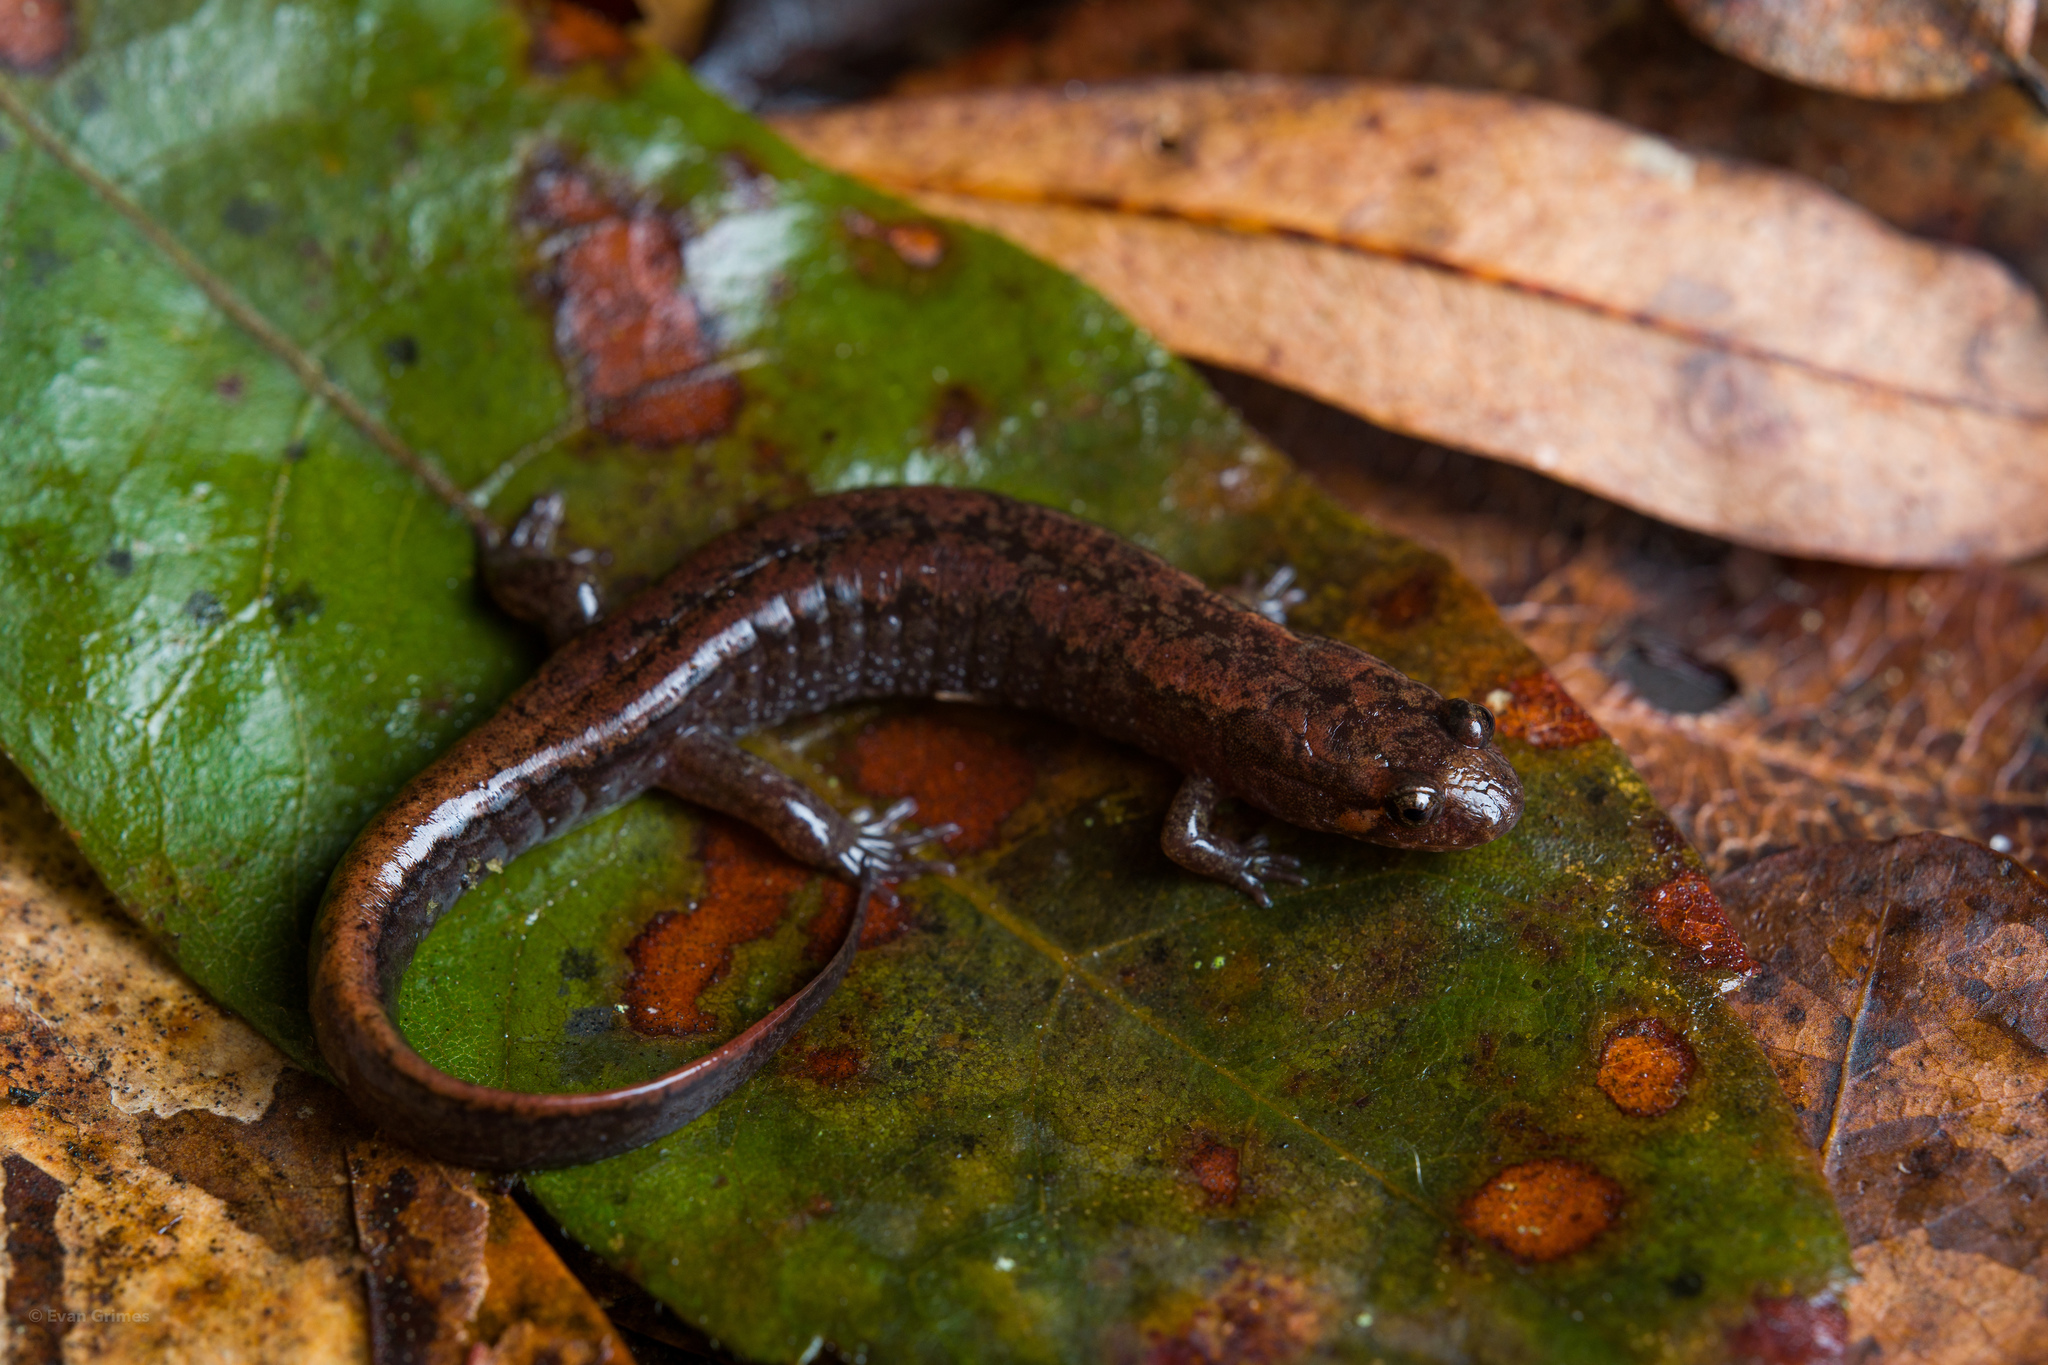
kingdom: Animalia
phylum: Chordata
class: Amphibia
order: Caudata
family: Plethodontidae
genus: Desmognathus
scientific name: Desmognathus conanti
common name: Spotted dusky salamander
